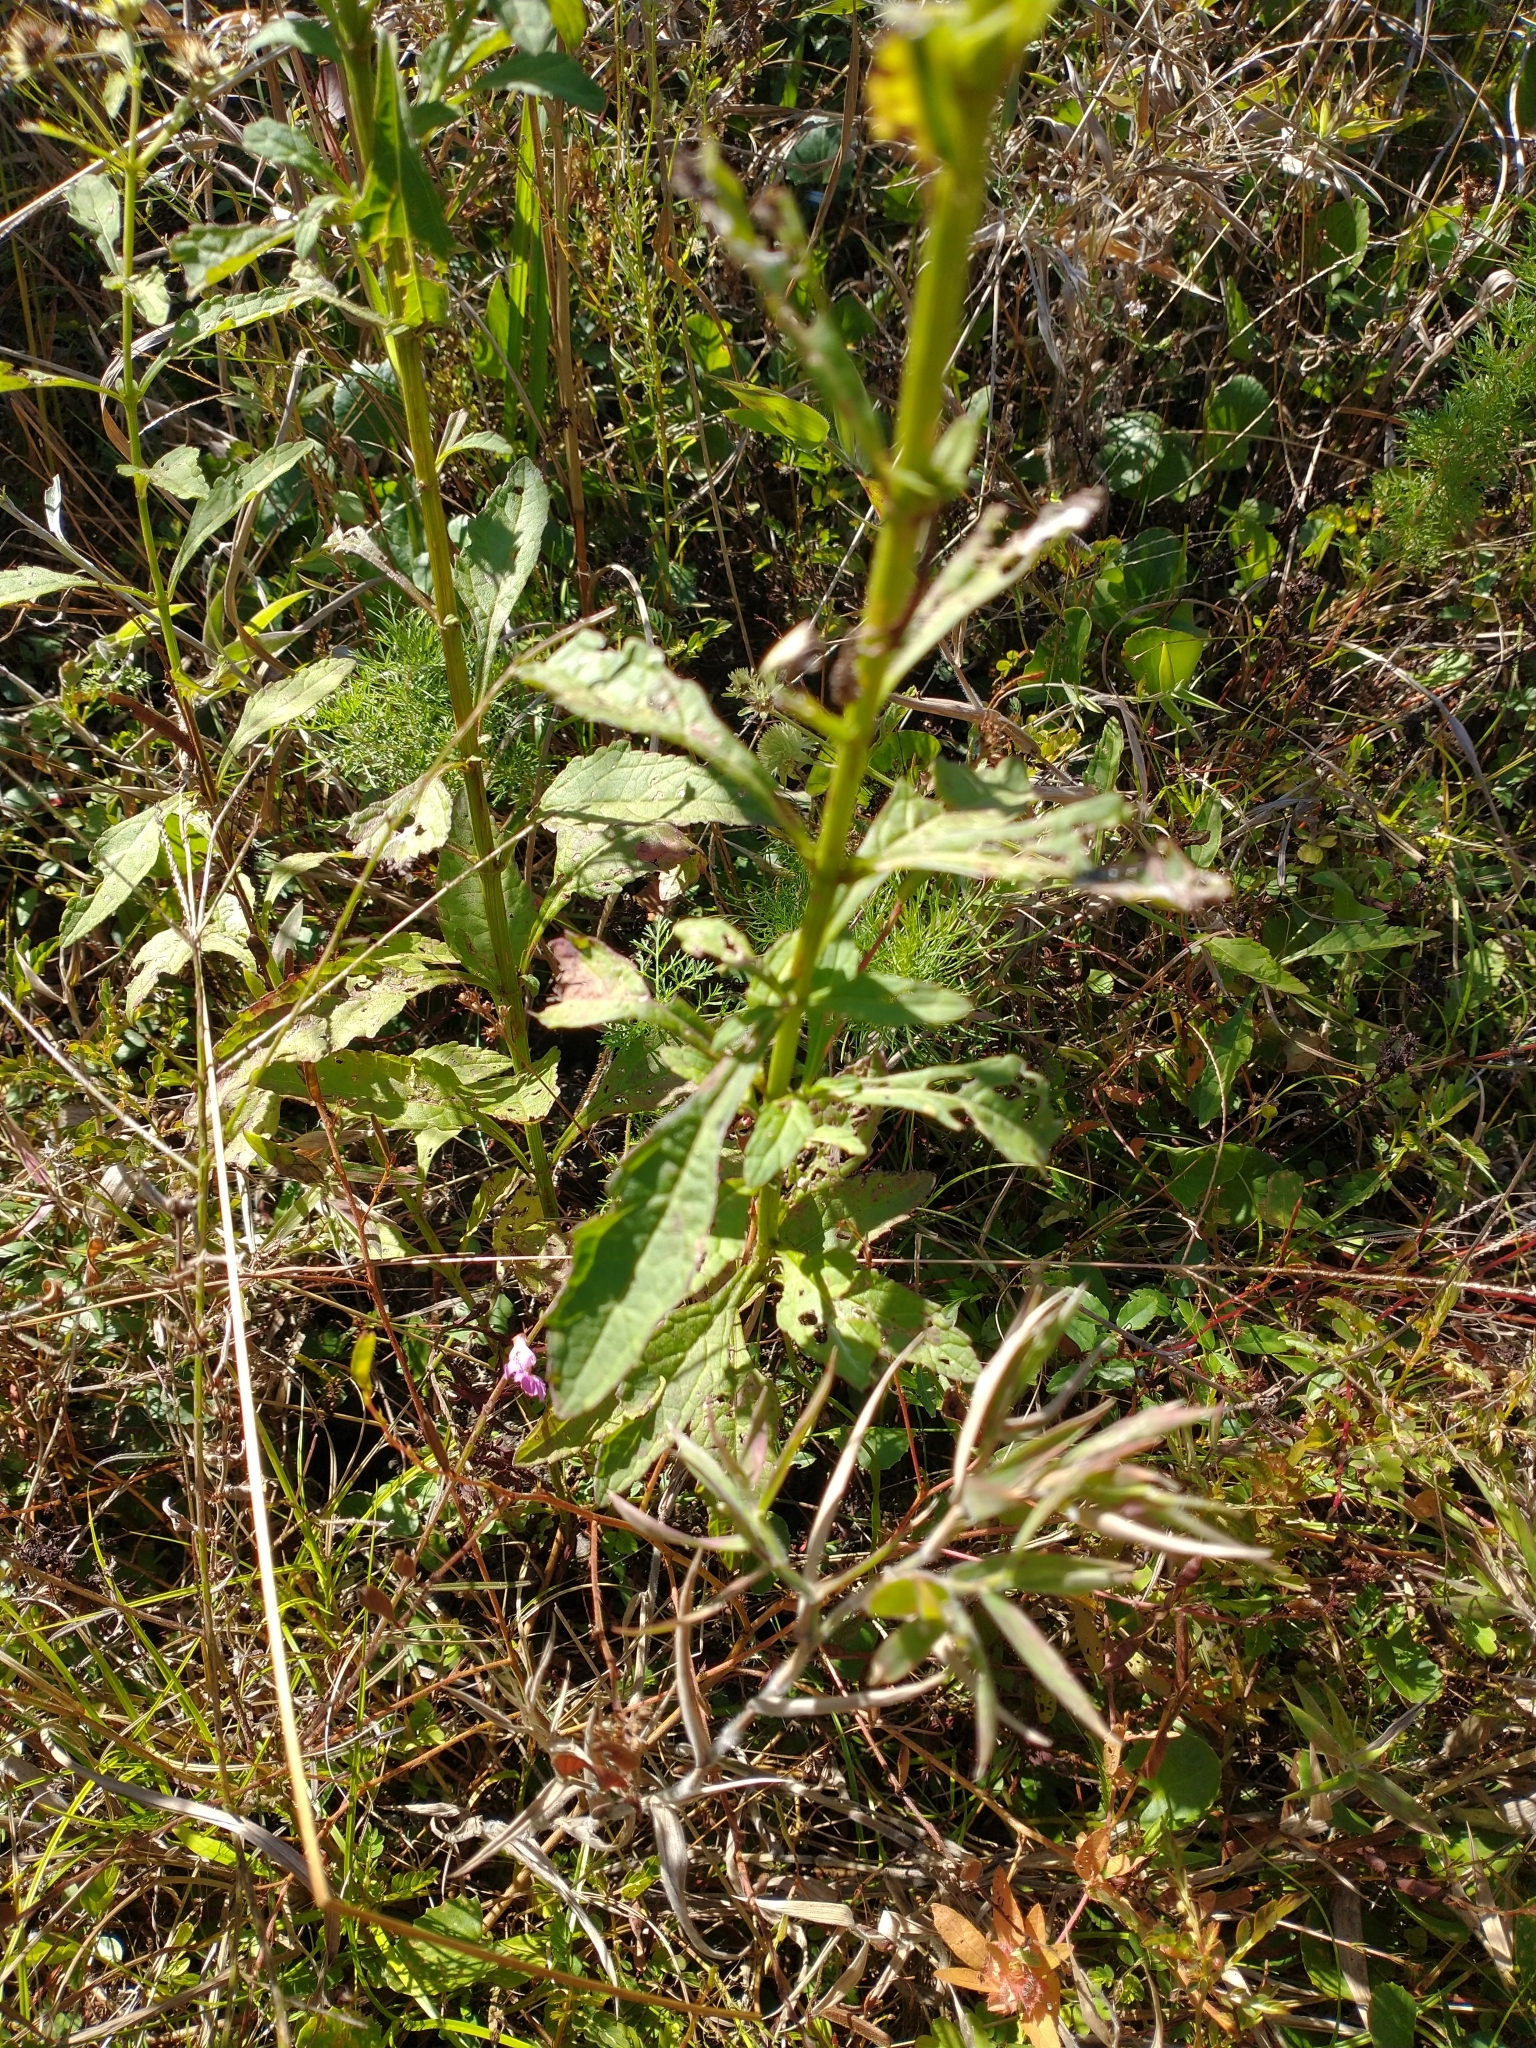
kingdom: Plantae
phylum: Tracheophyta
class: Magnoliopsida
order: Lamiales
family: Lamiaceae
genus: Hyptis
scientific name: Hyptis alata
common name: Cluster bush-mint
